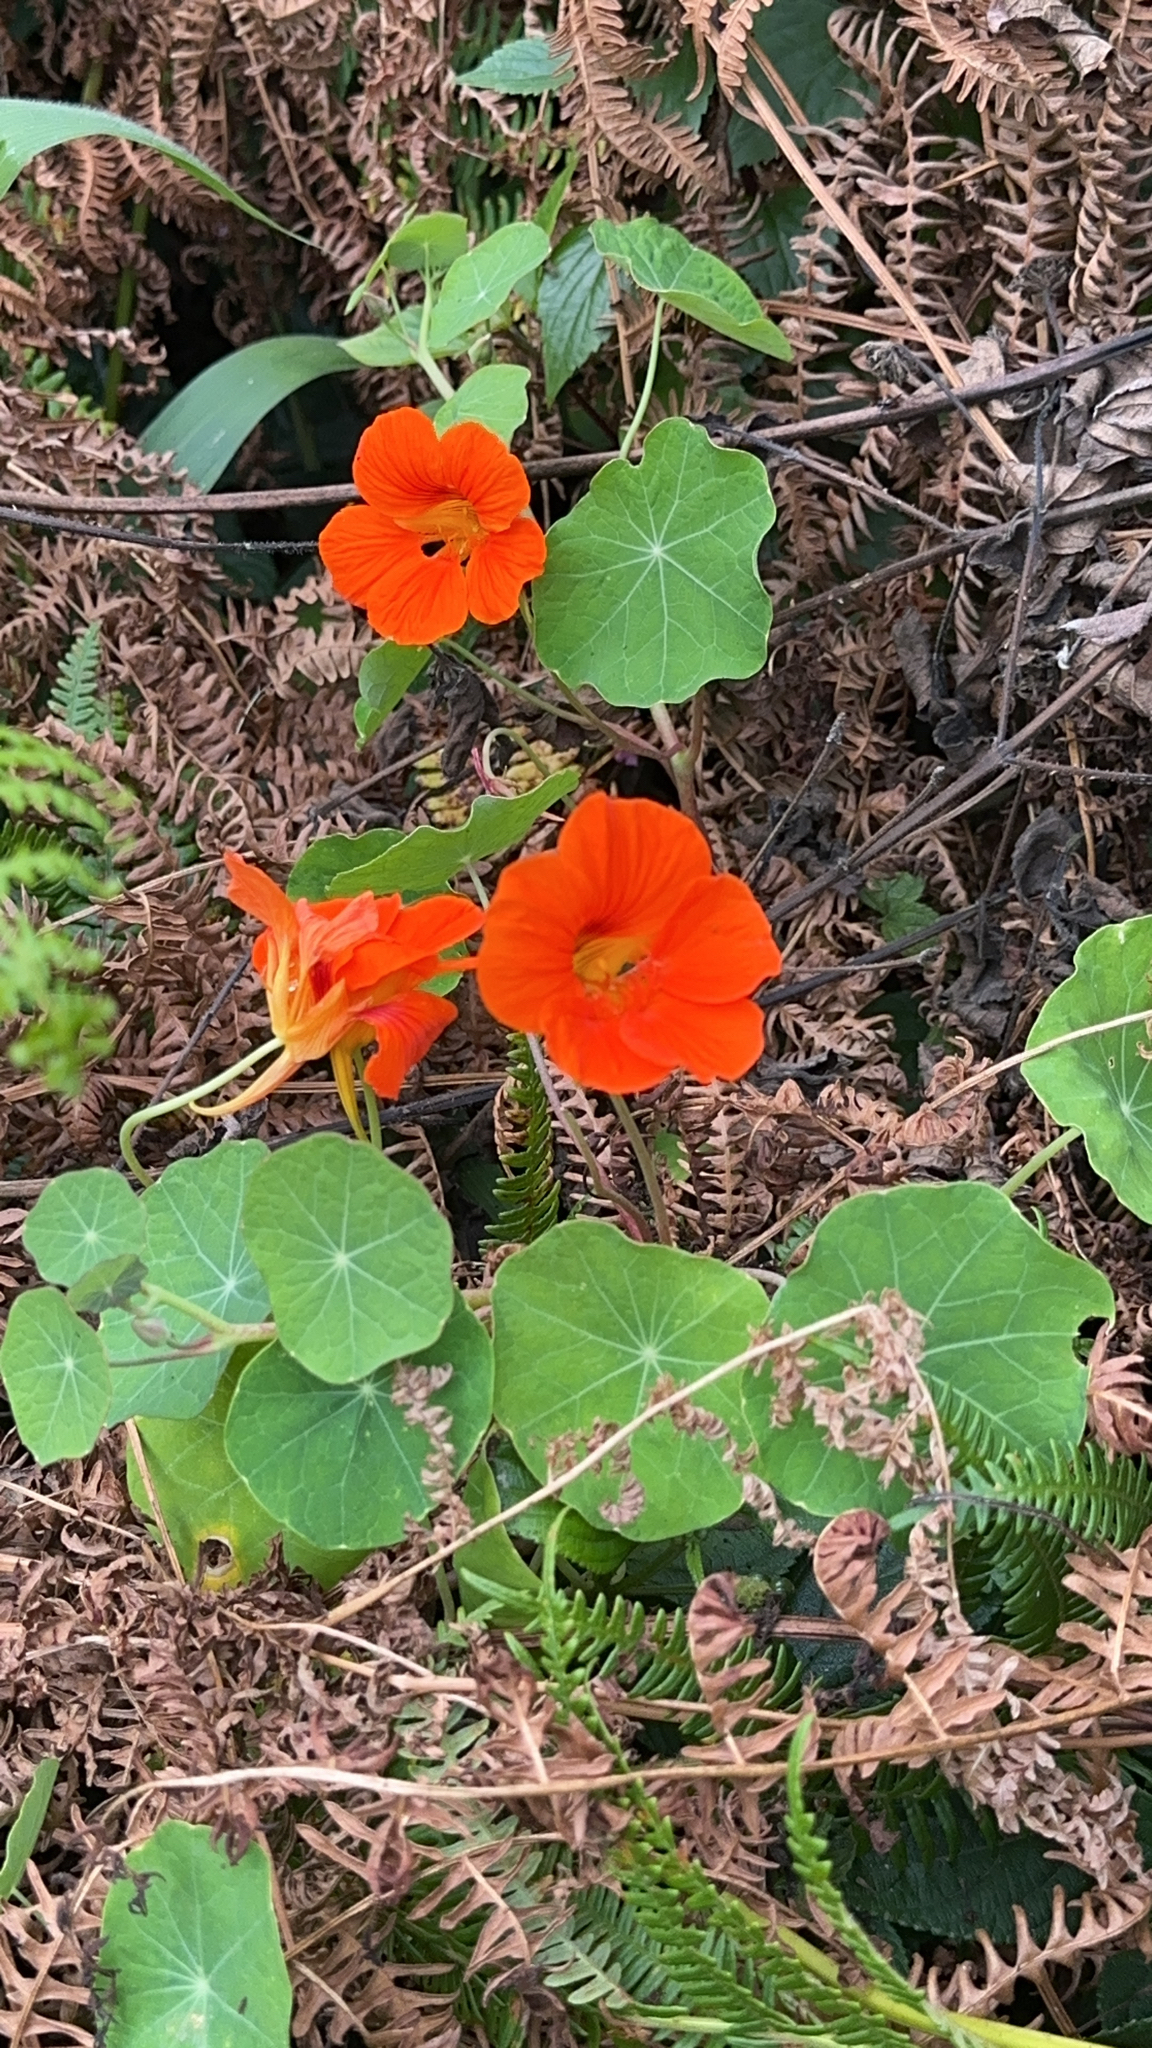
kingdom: Plantae
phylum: Tracheophyta
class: Magnoliopsida
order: Brassicales
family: Tropaeolaceae
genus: Tropaeolum
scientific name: Tropaeolum majus
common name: Nasturtium
